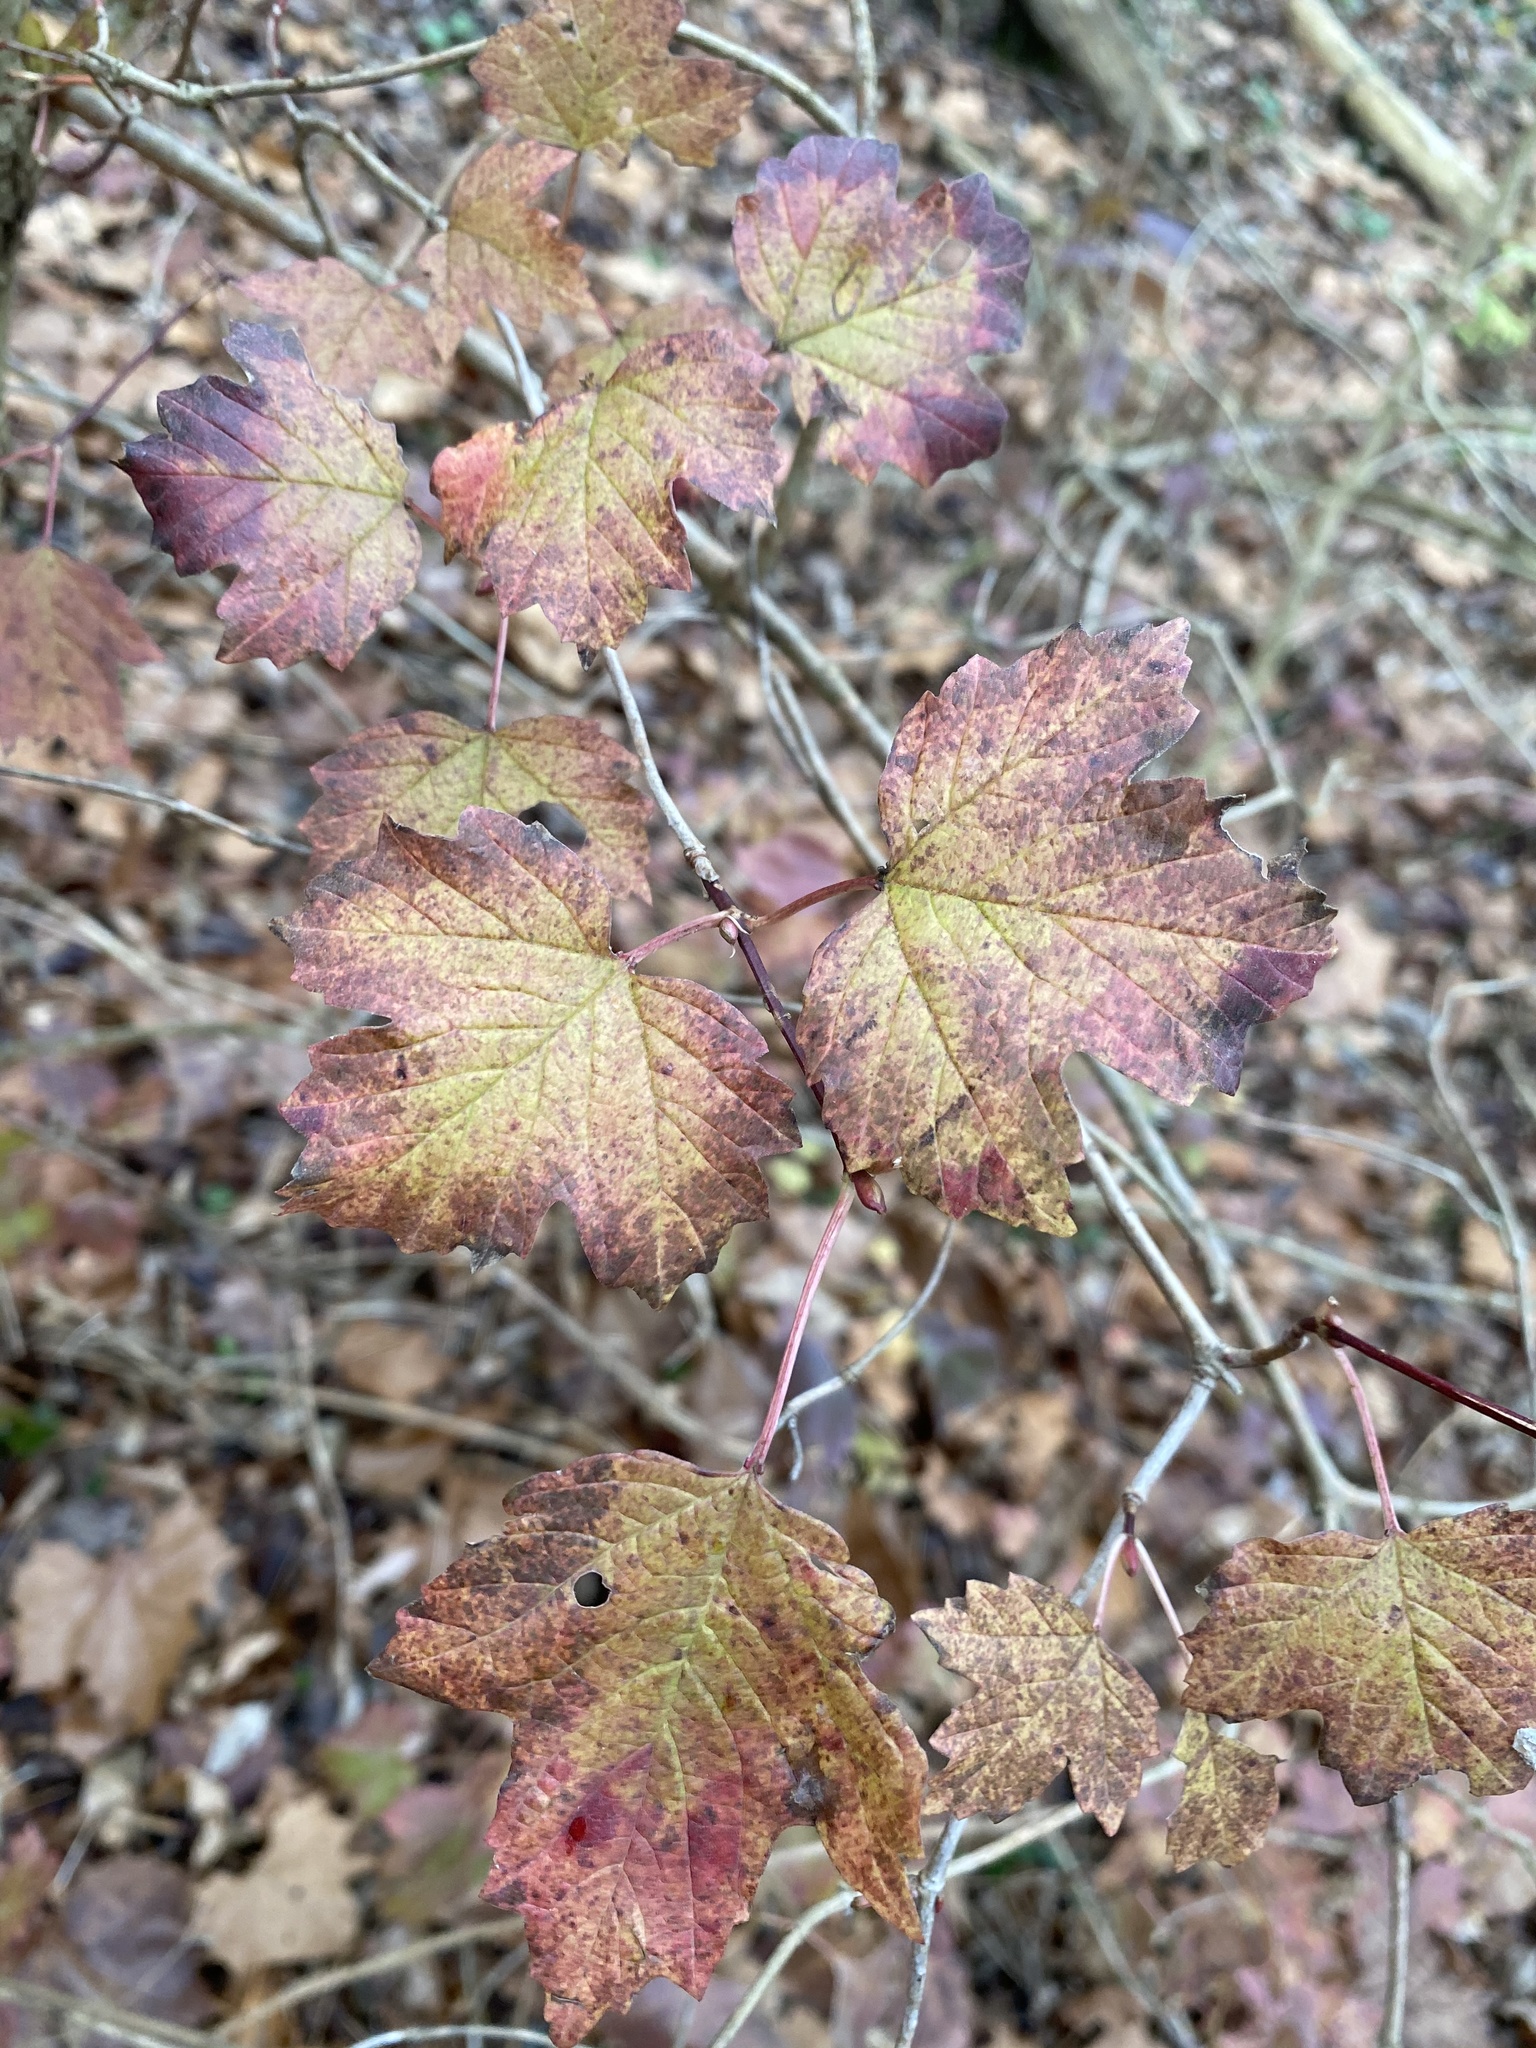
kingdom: Plantae
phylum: Tracheophyta
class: Magnoliopsida
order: Dipsacales
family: Viburnaceae
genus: Viburnum
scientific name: Viburnum acerifolium
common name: Dockmackie
